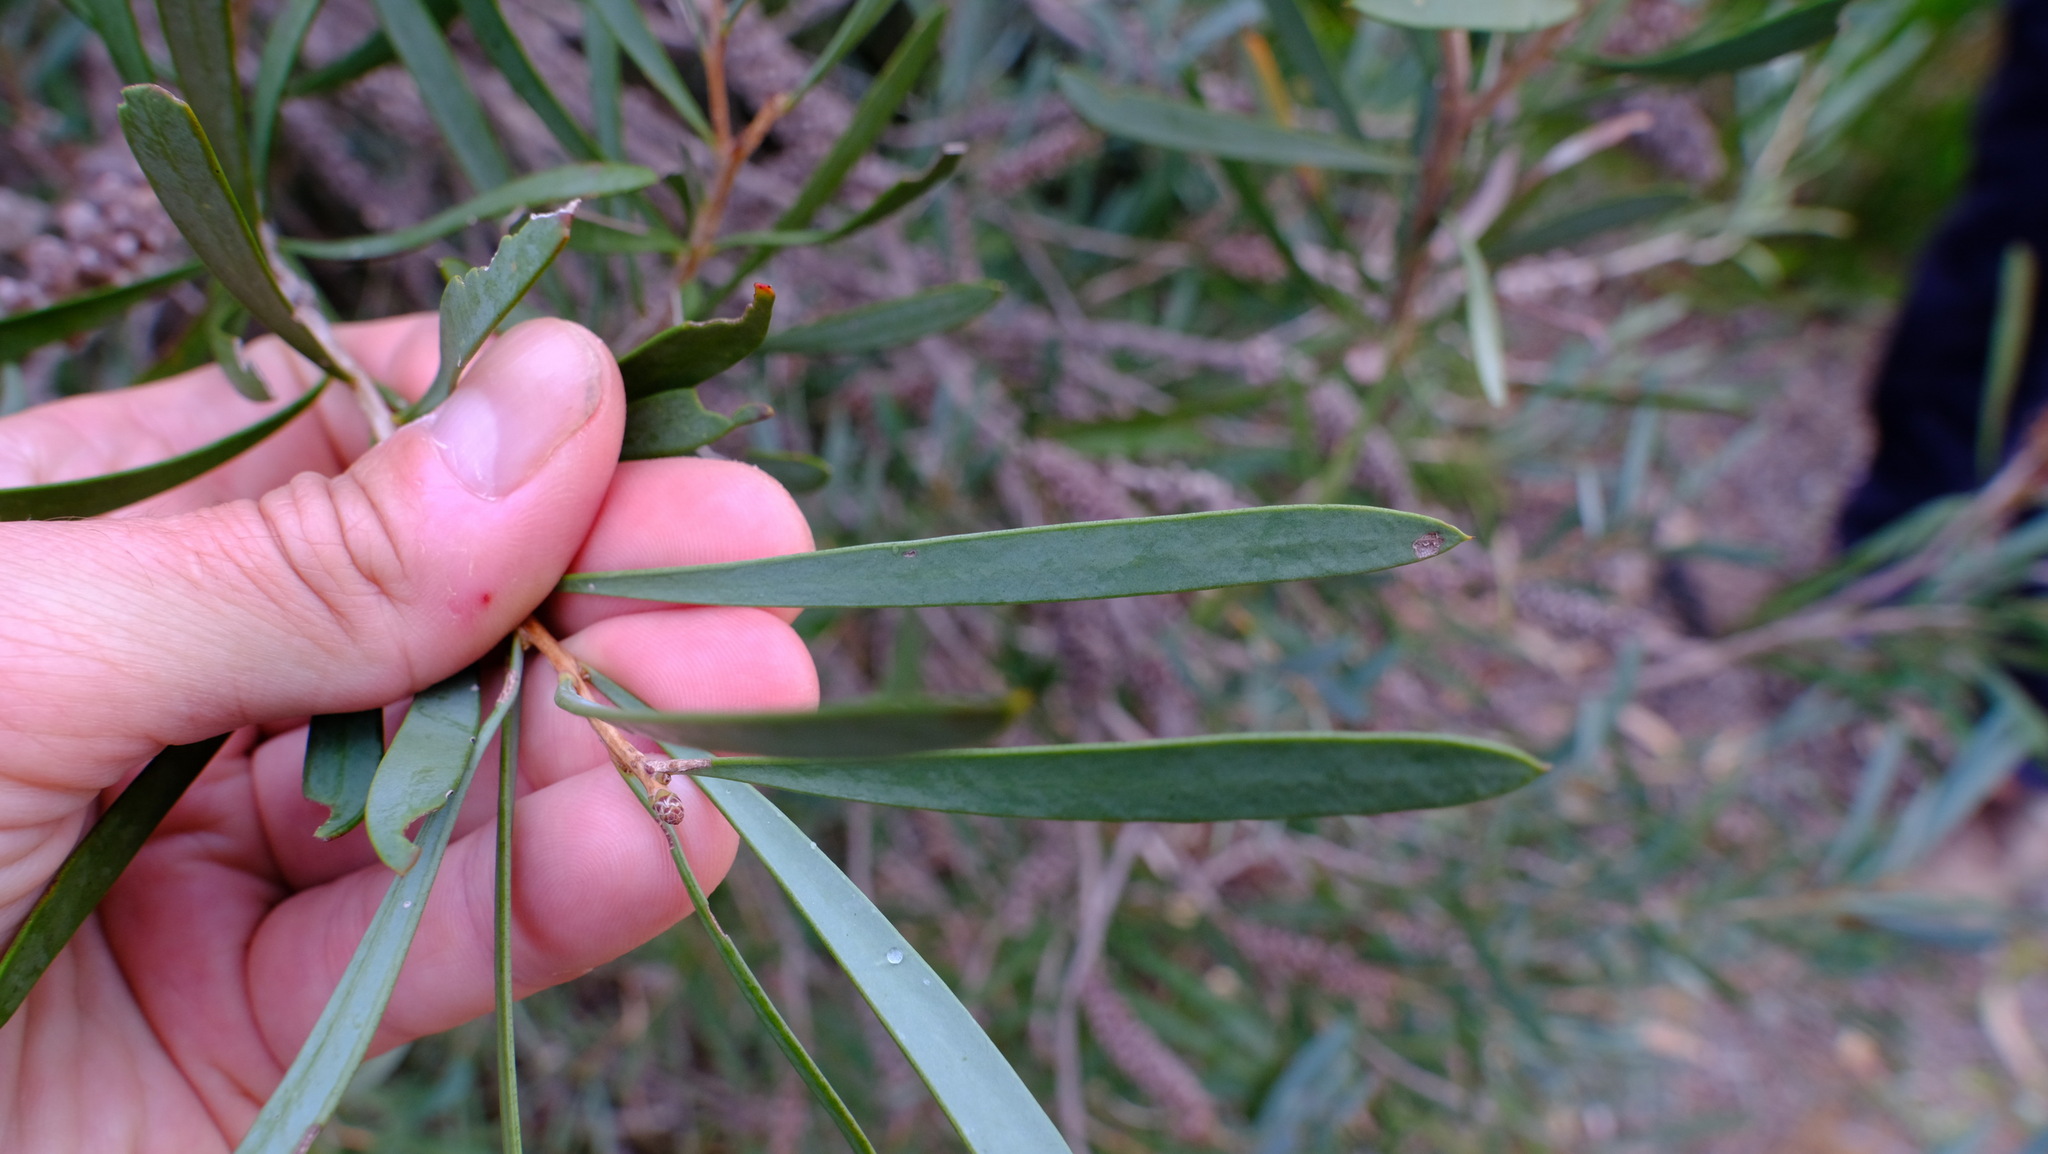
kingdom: Plantae
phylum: Tracheophyta
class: Magnoliopsida
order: Myrtales
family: Myrtaceae
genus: Callistemon
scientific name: Callistemon phoeniceus
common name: Lesser bottlebrush
